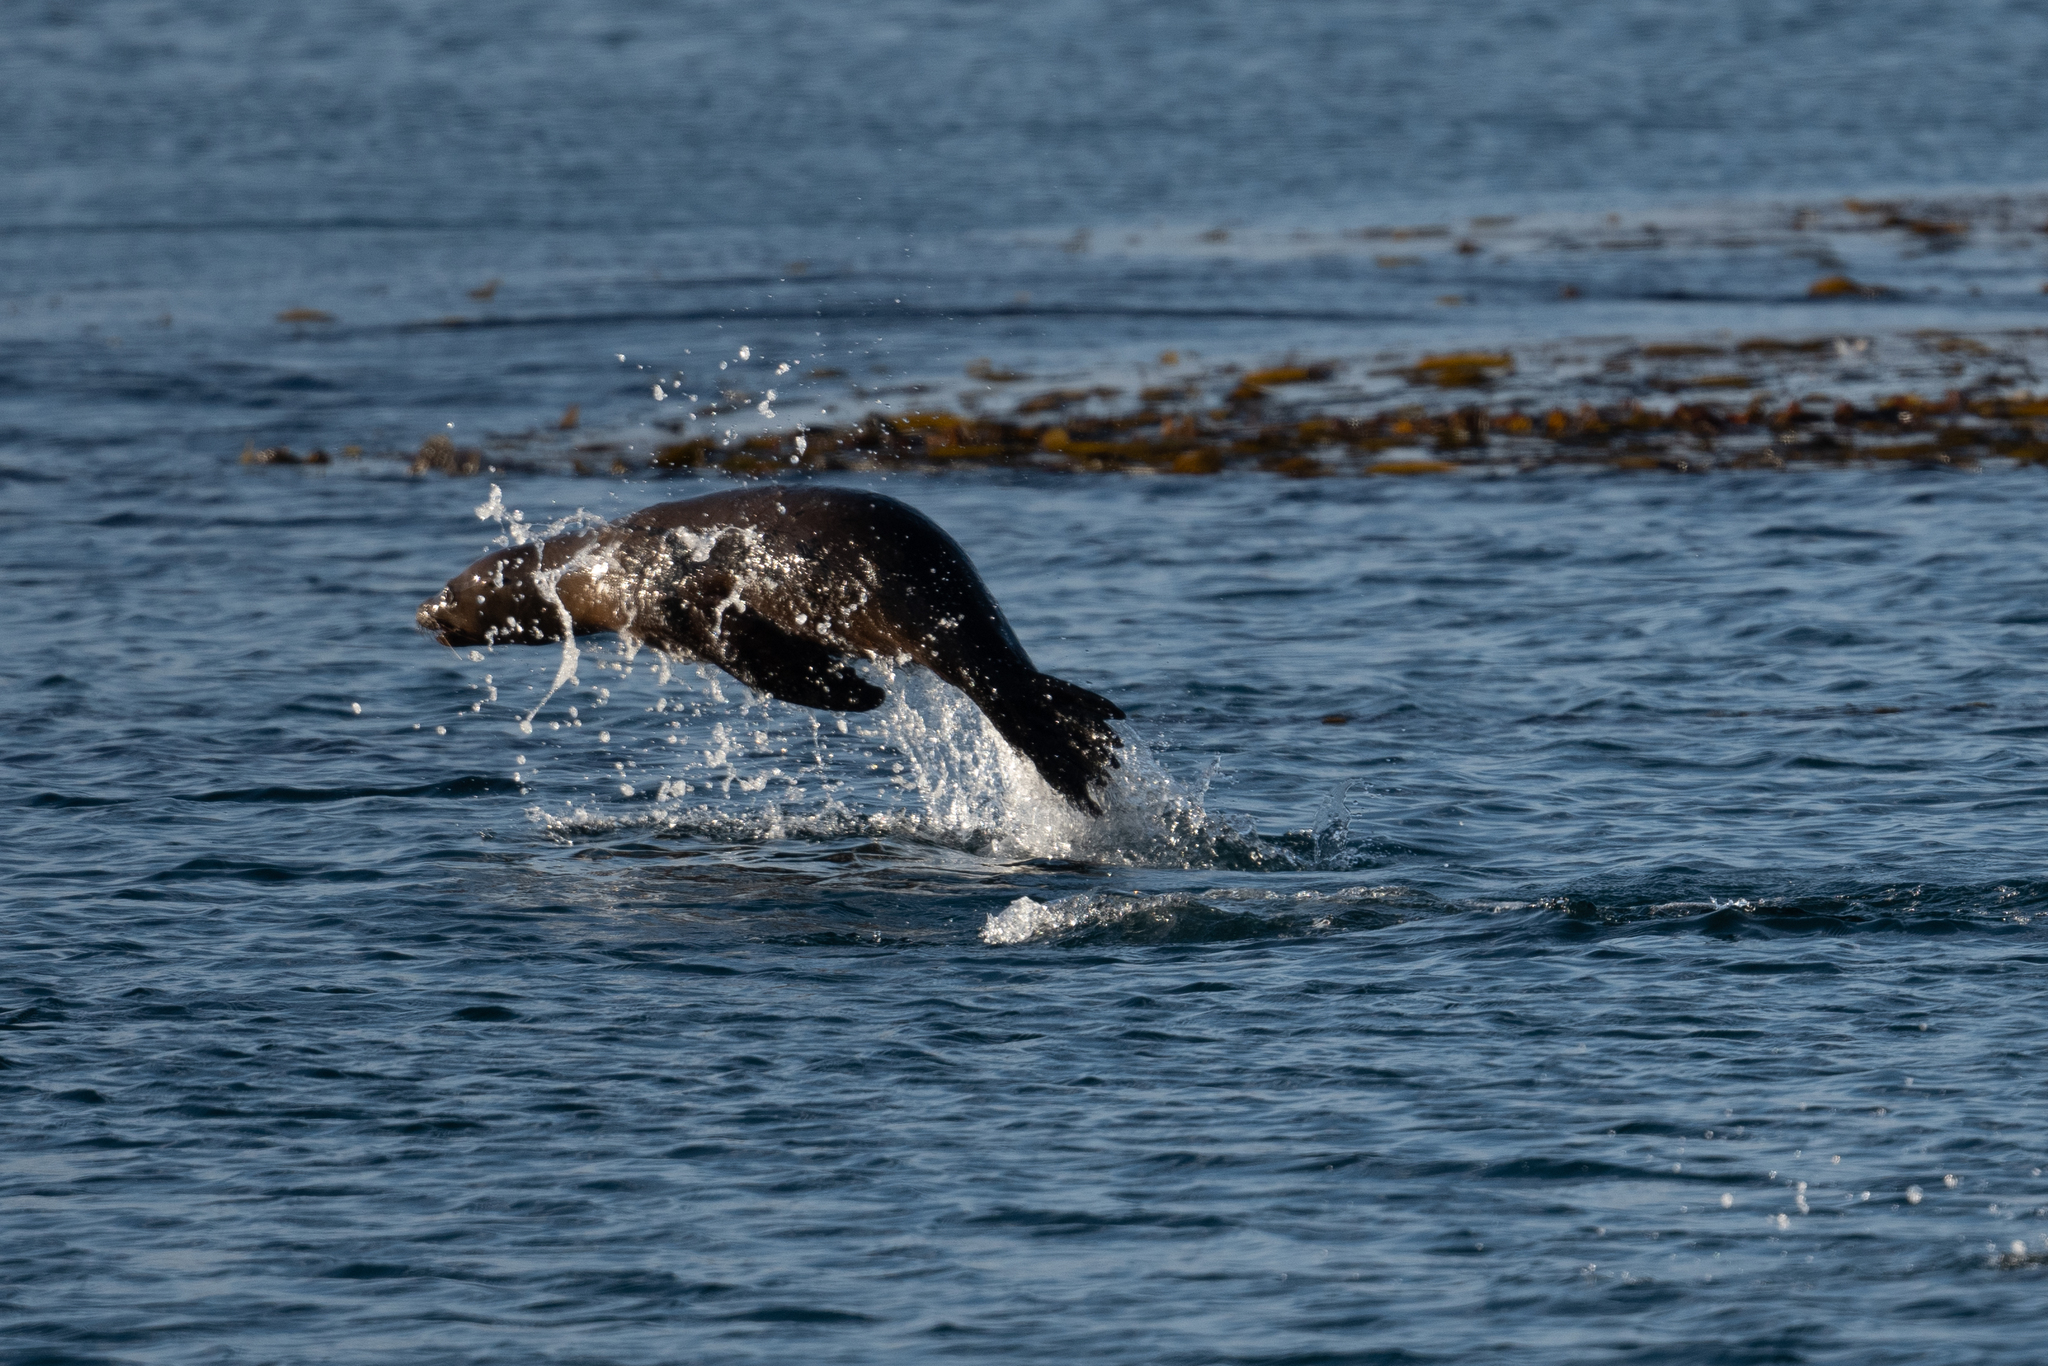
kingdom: Animalia
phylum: Chordata
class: Mammalia
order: Carnivora
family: Otariidae
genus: Zalophus
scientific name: Zalophus californianus
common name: California sea lion
